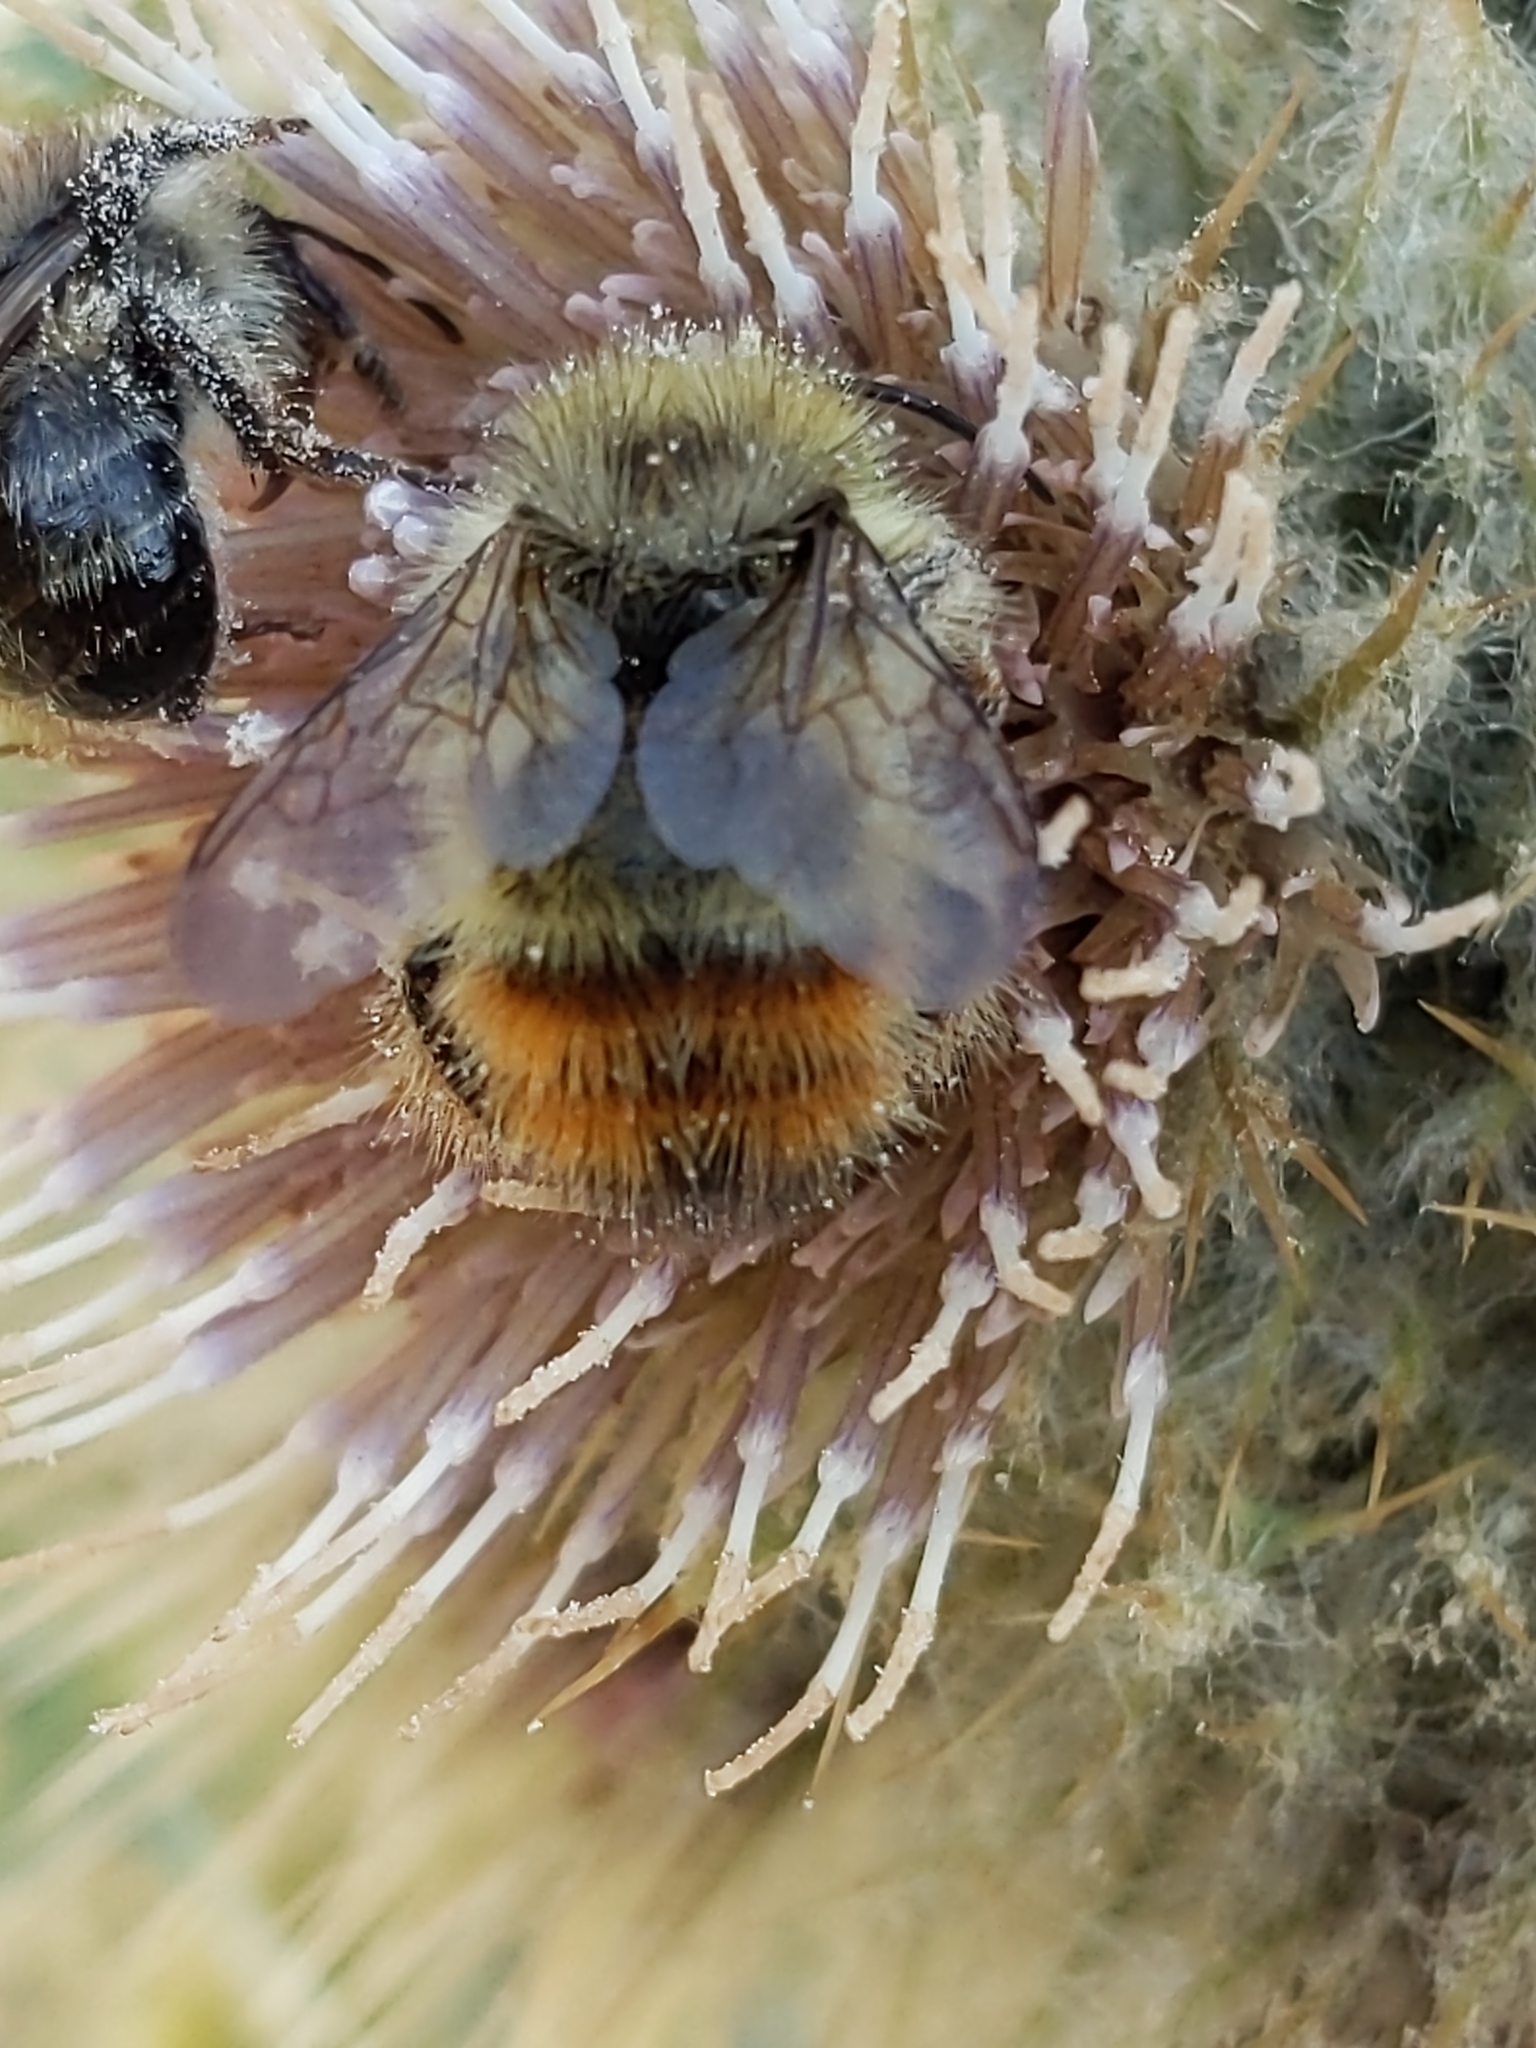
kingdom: Animalia
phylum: Arthropoda
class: Insecta
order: Hymenoptera
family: Apidae
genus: Bombus
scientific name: Bombus flavifrons
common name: Yellow head bumble bee
